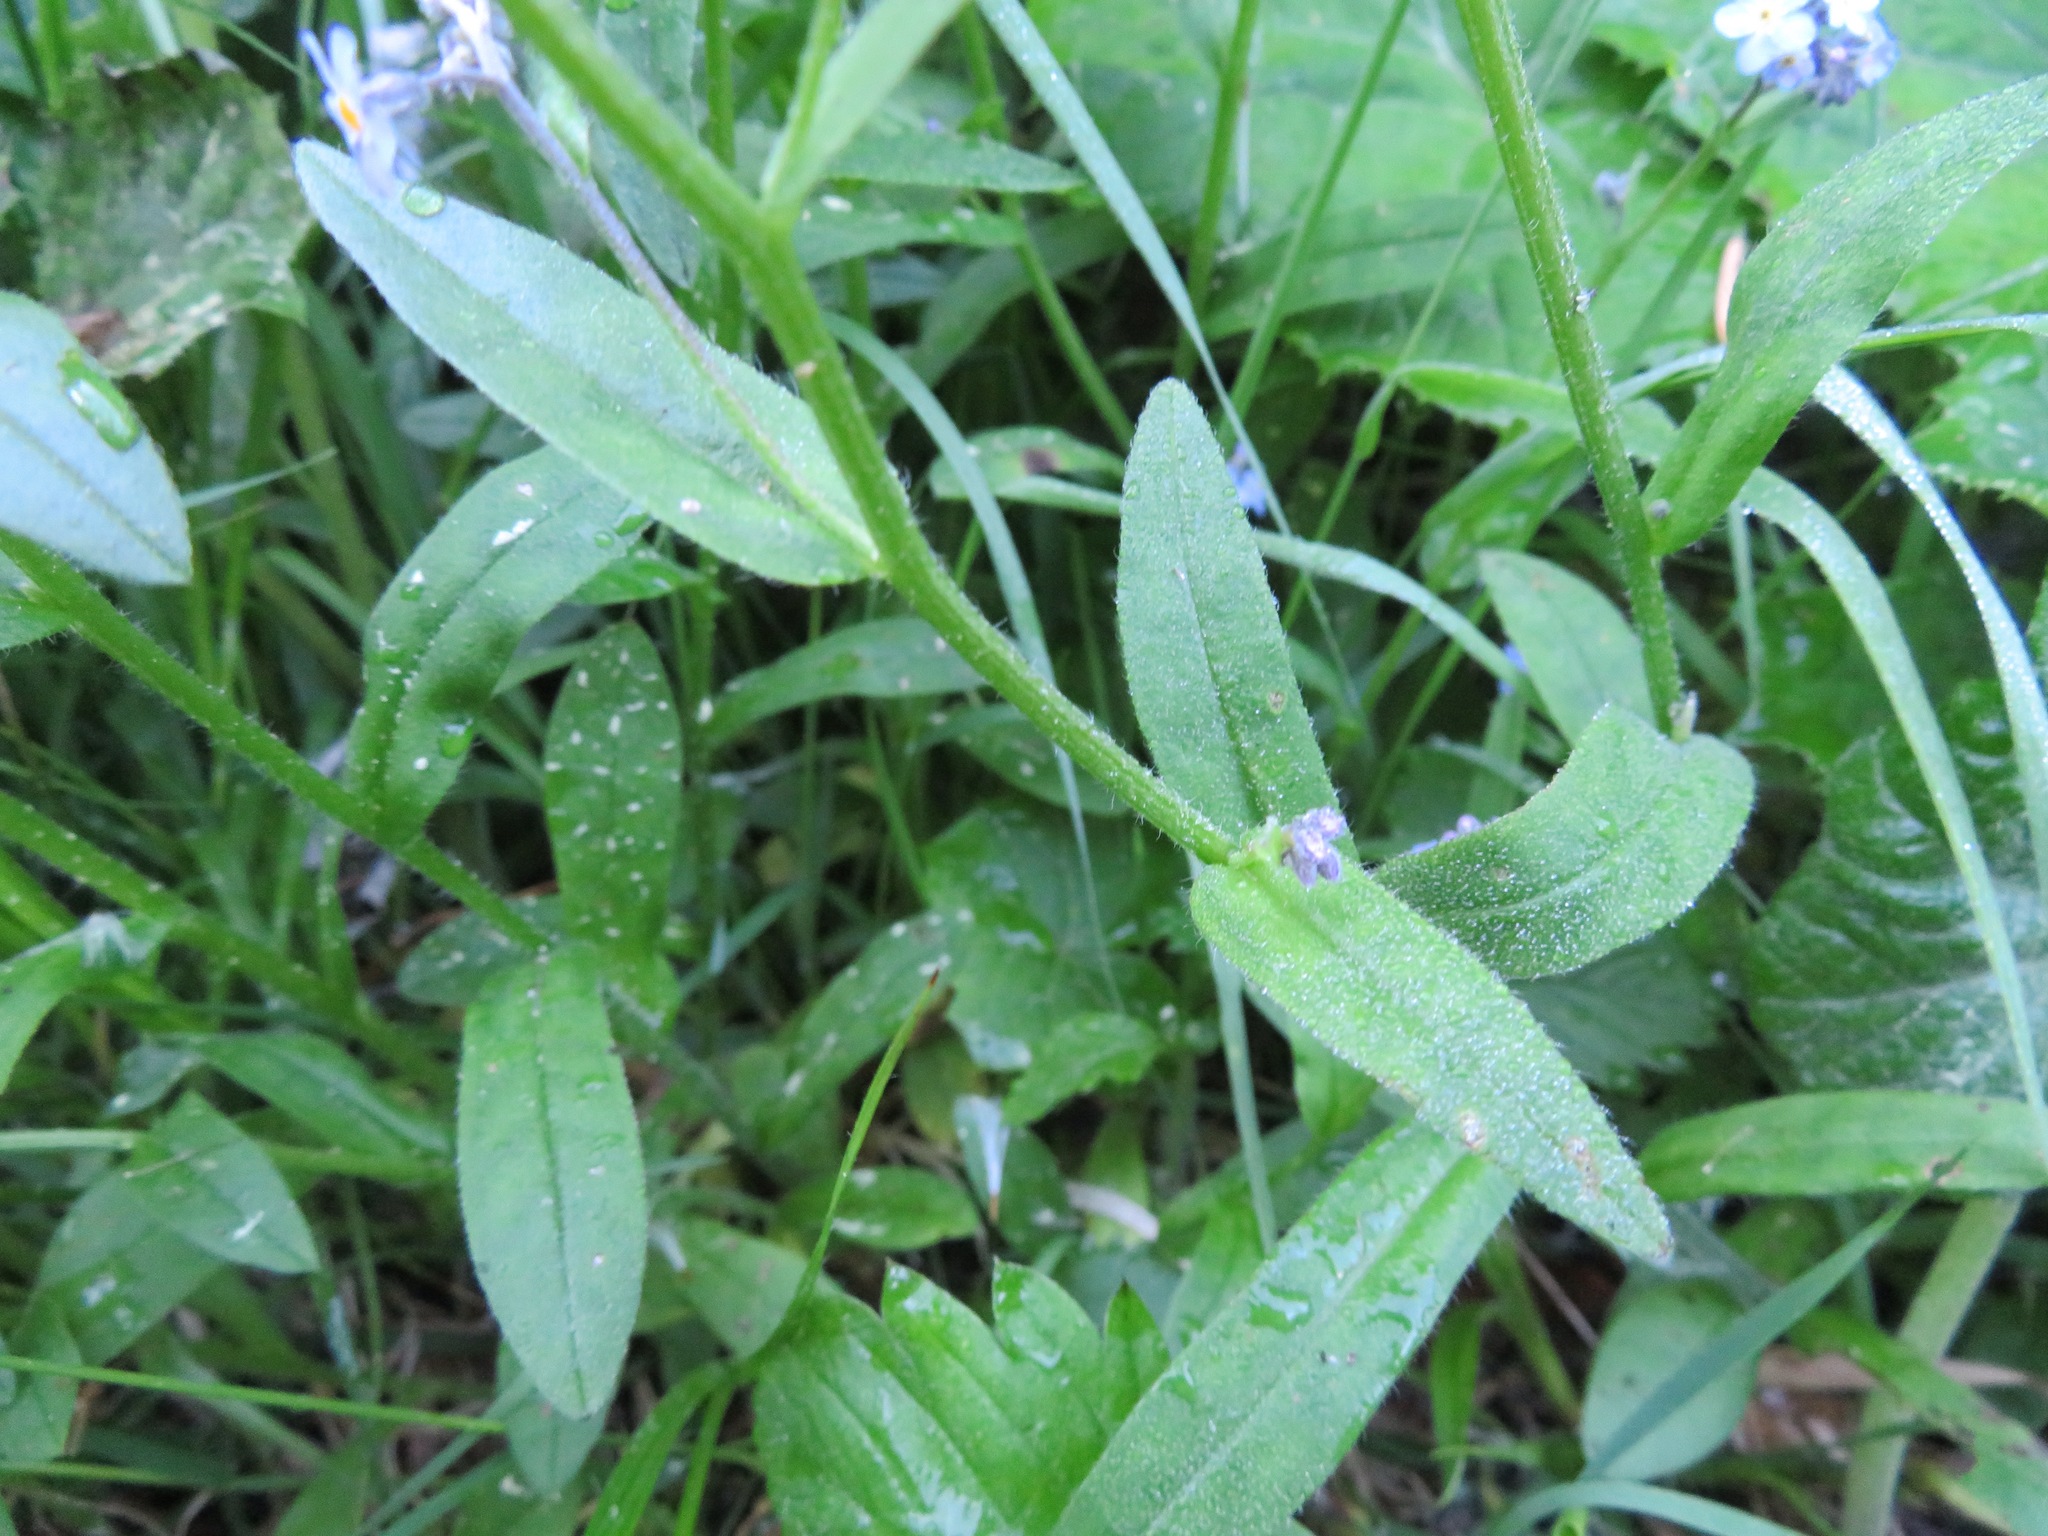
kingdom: Plantae
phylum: Tracheophyta
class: Magnoliopsida
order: Boraginales
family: Boraginaceae
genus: Myosotis
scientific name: Myosotis sylvatica
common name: Wood forget-me-not
